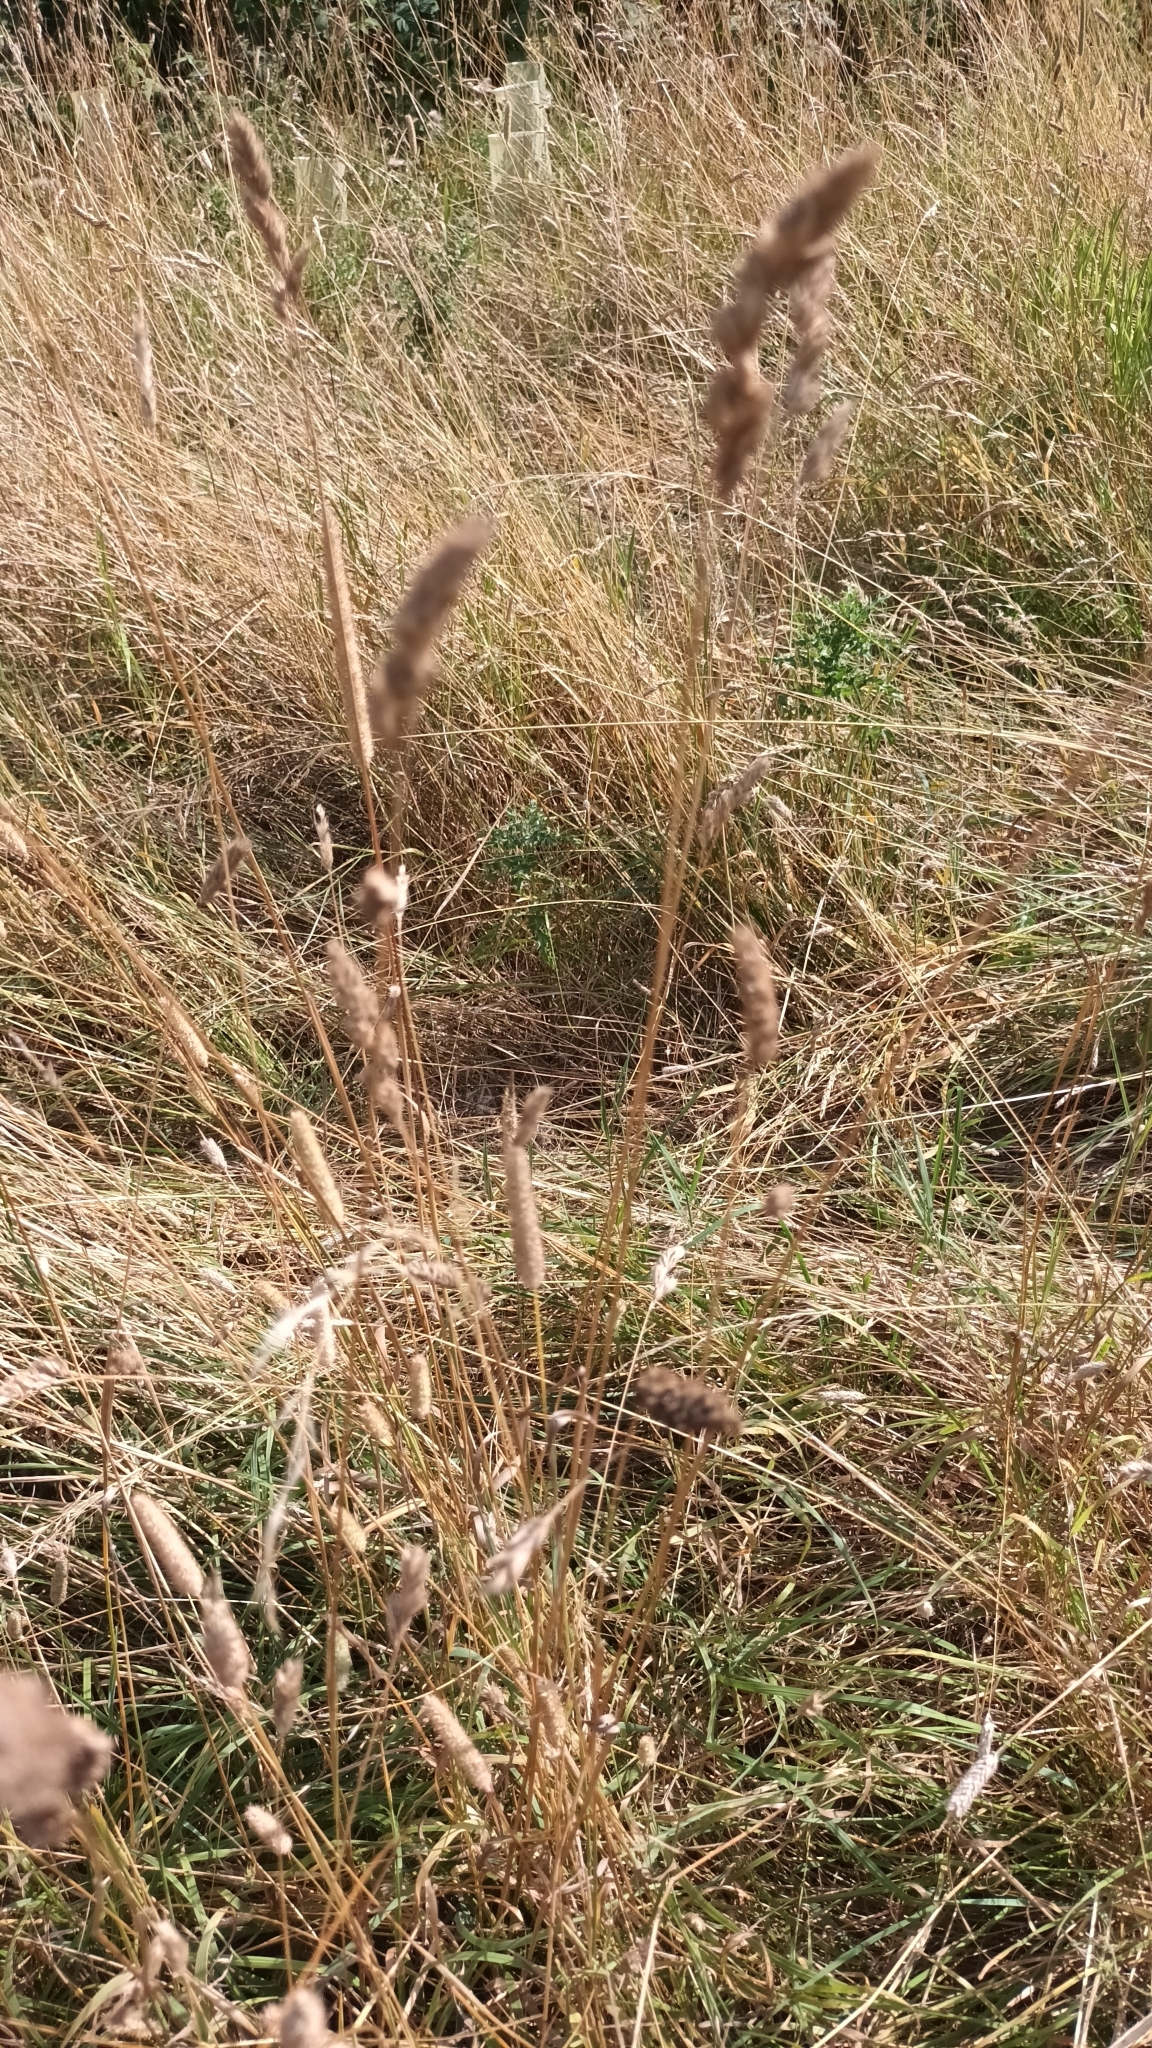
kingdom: Plantae
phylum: Tracheophyta
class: Liliopsida
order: Poales
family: Poaceae
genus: Dactylis
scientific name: Dactylis glomerata
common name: Orchardgrass
